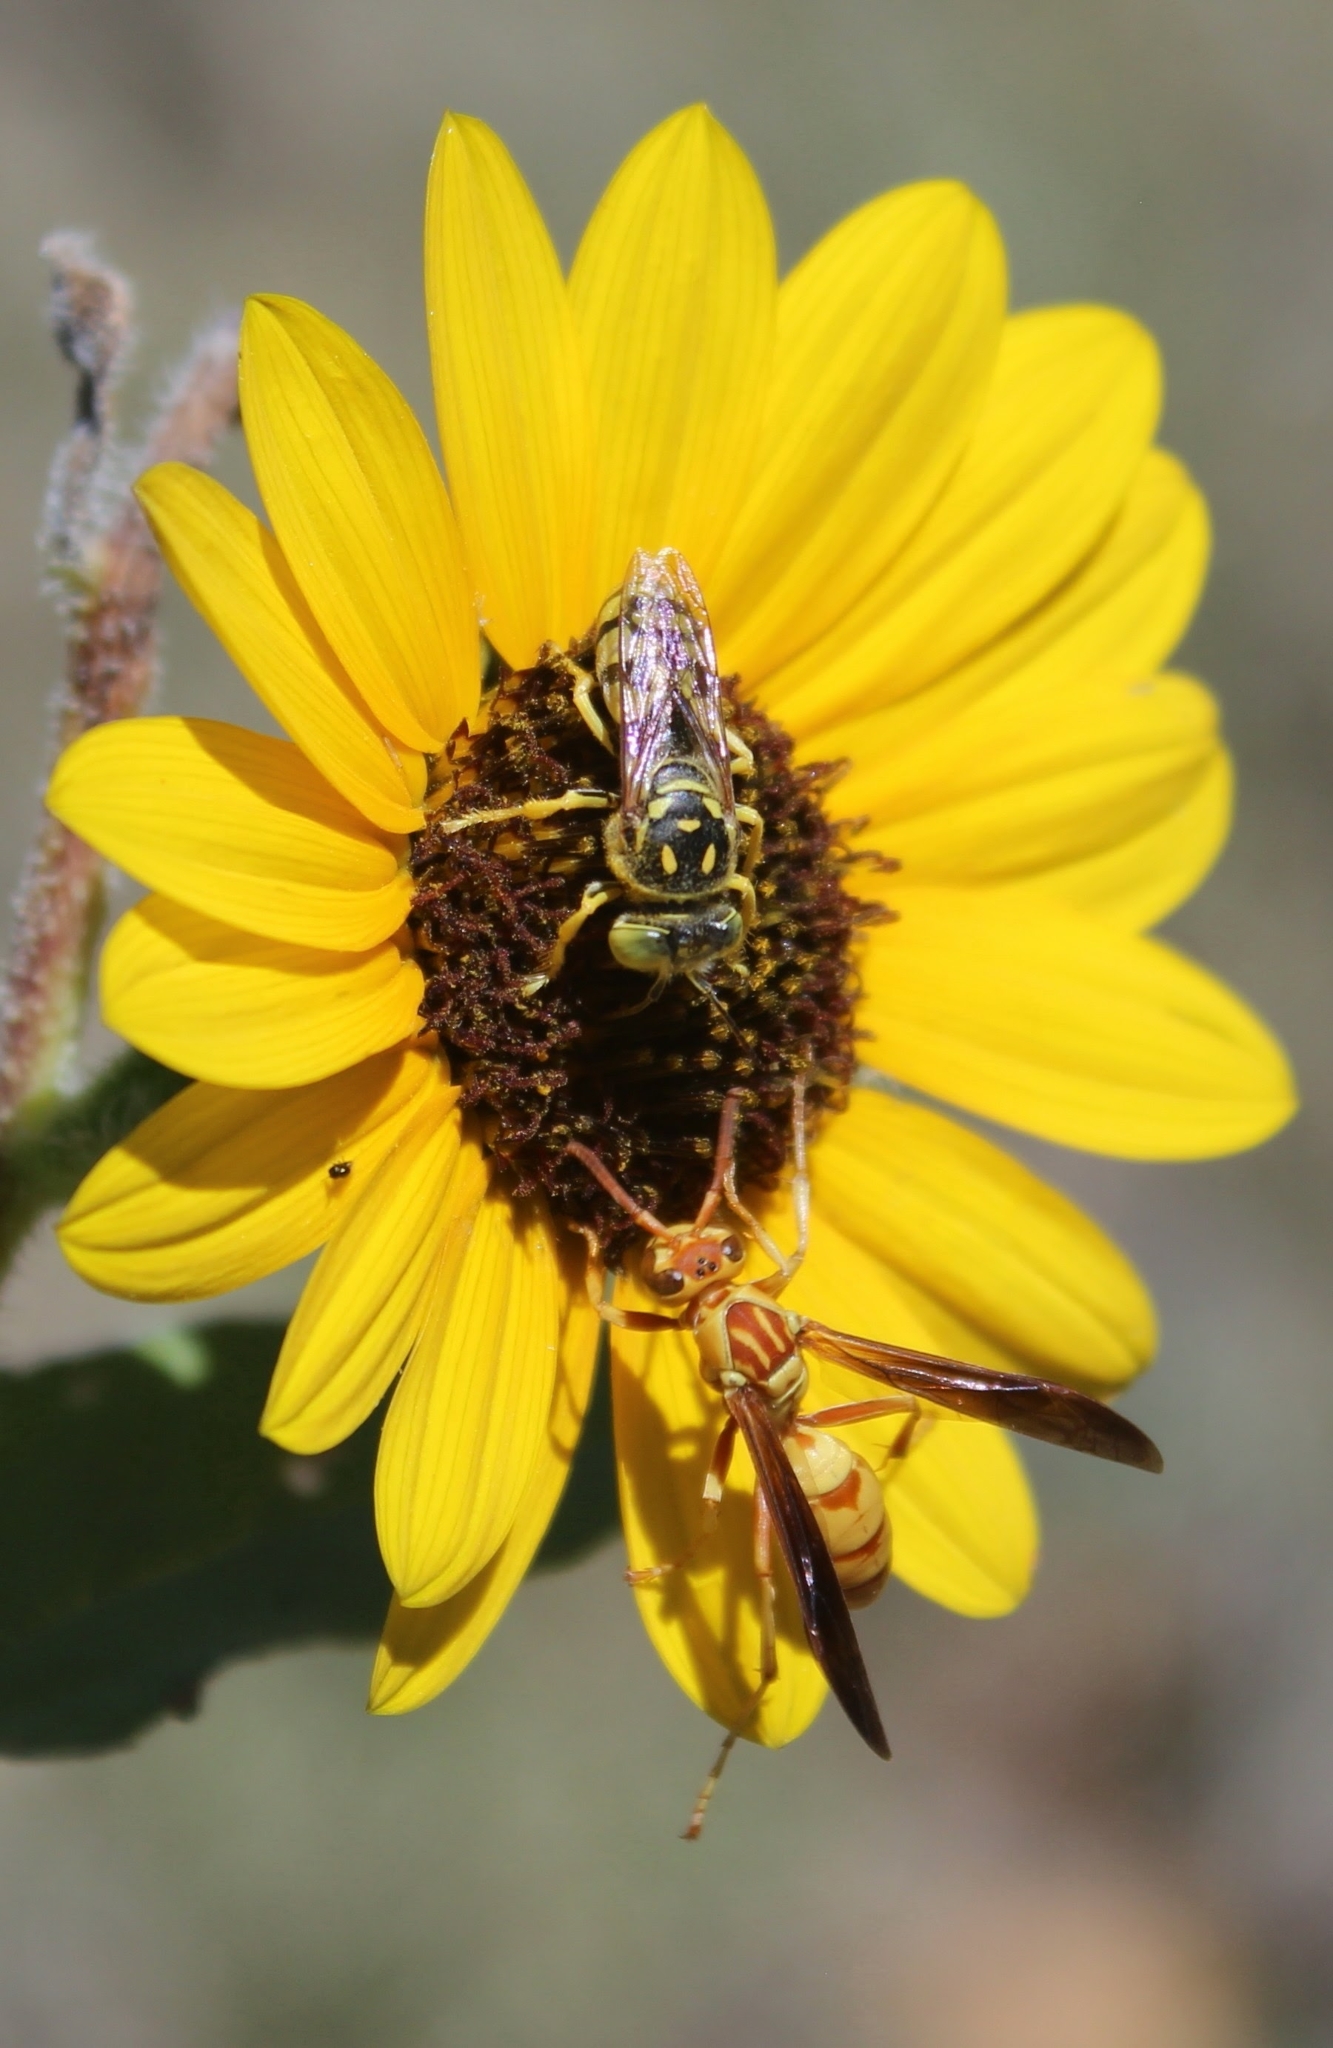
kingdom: Animalia
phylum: Arthropoda
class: Insecta
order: Hymenoptera
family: Eumenidae
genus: Polistes
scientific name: Polistes aurifer
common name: Paper wasp
